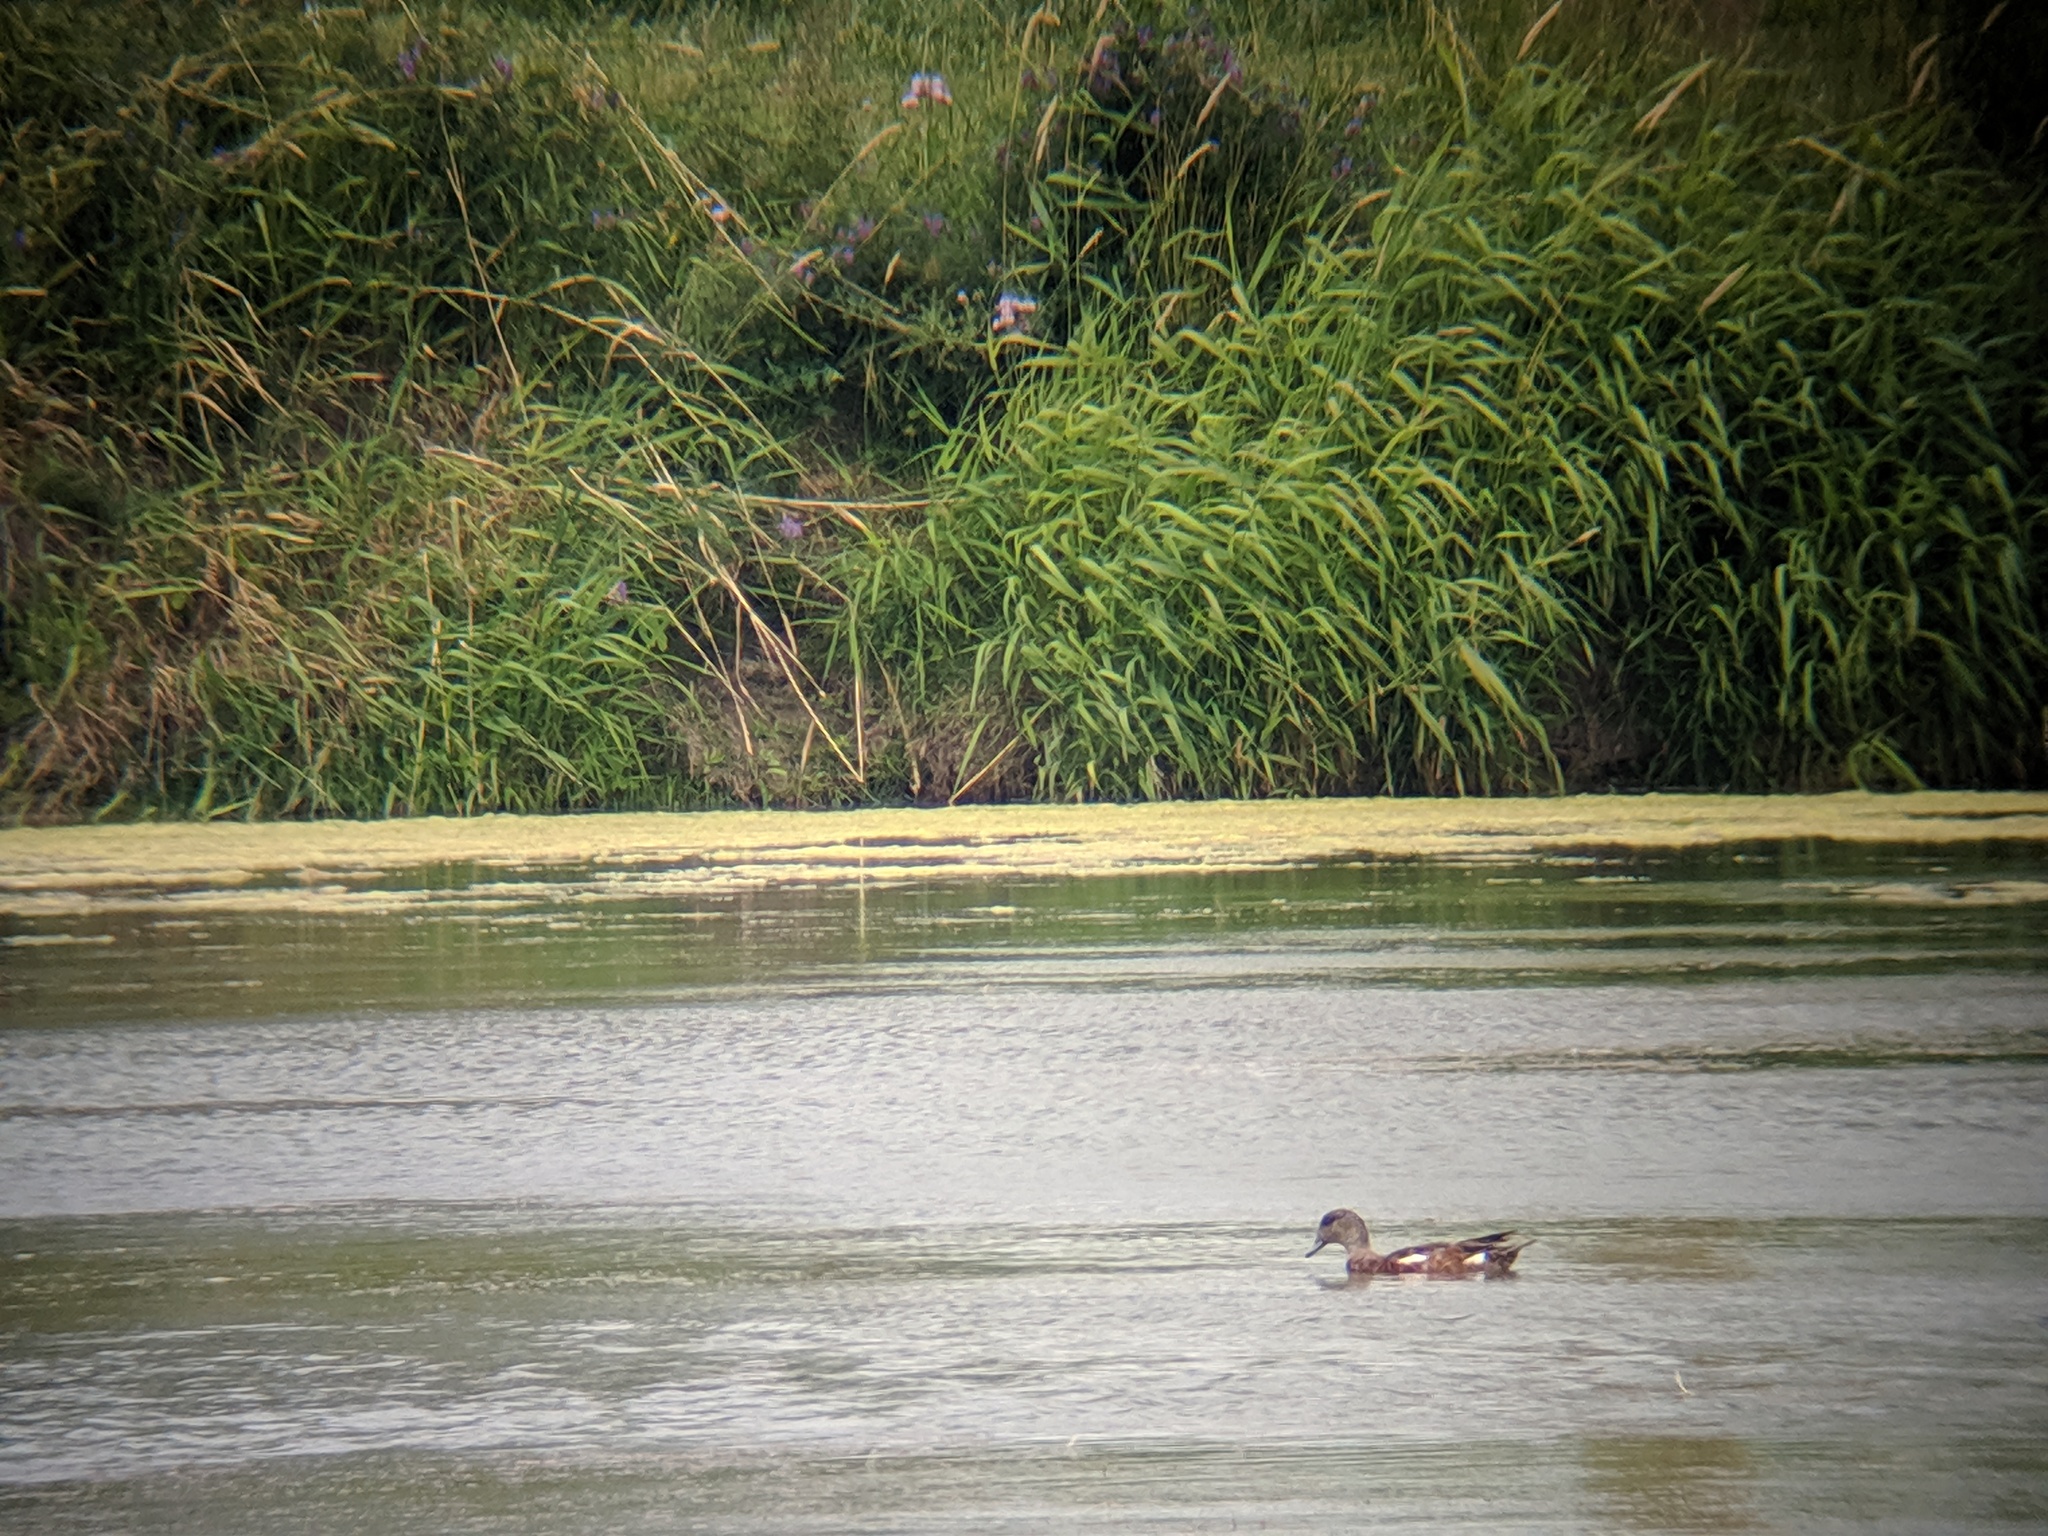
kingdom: Animalia
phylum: Chordata
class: Aves
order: Anseriformes
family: Anatidae
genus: Mareca
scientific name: Mareca americana
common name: American wigeon
